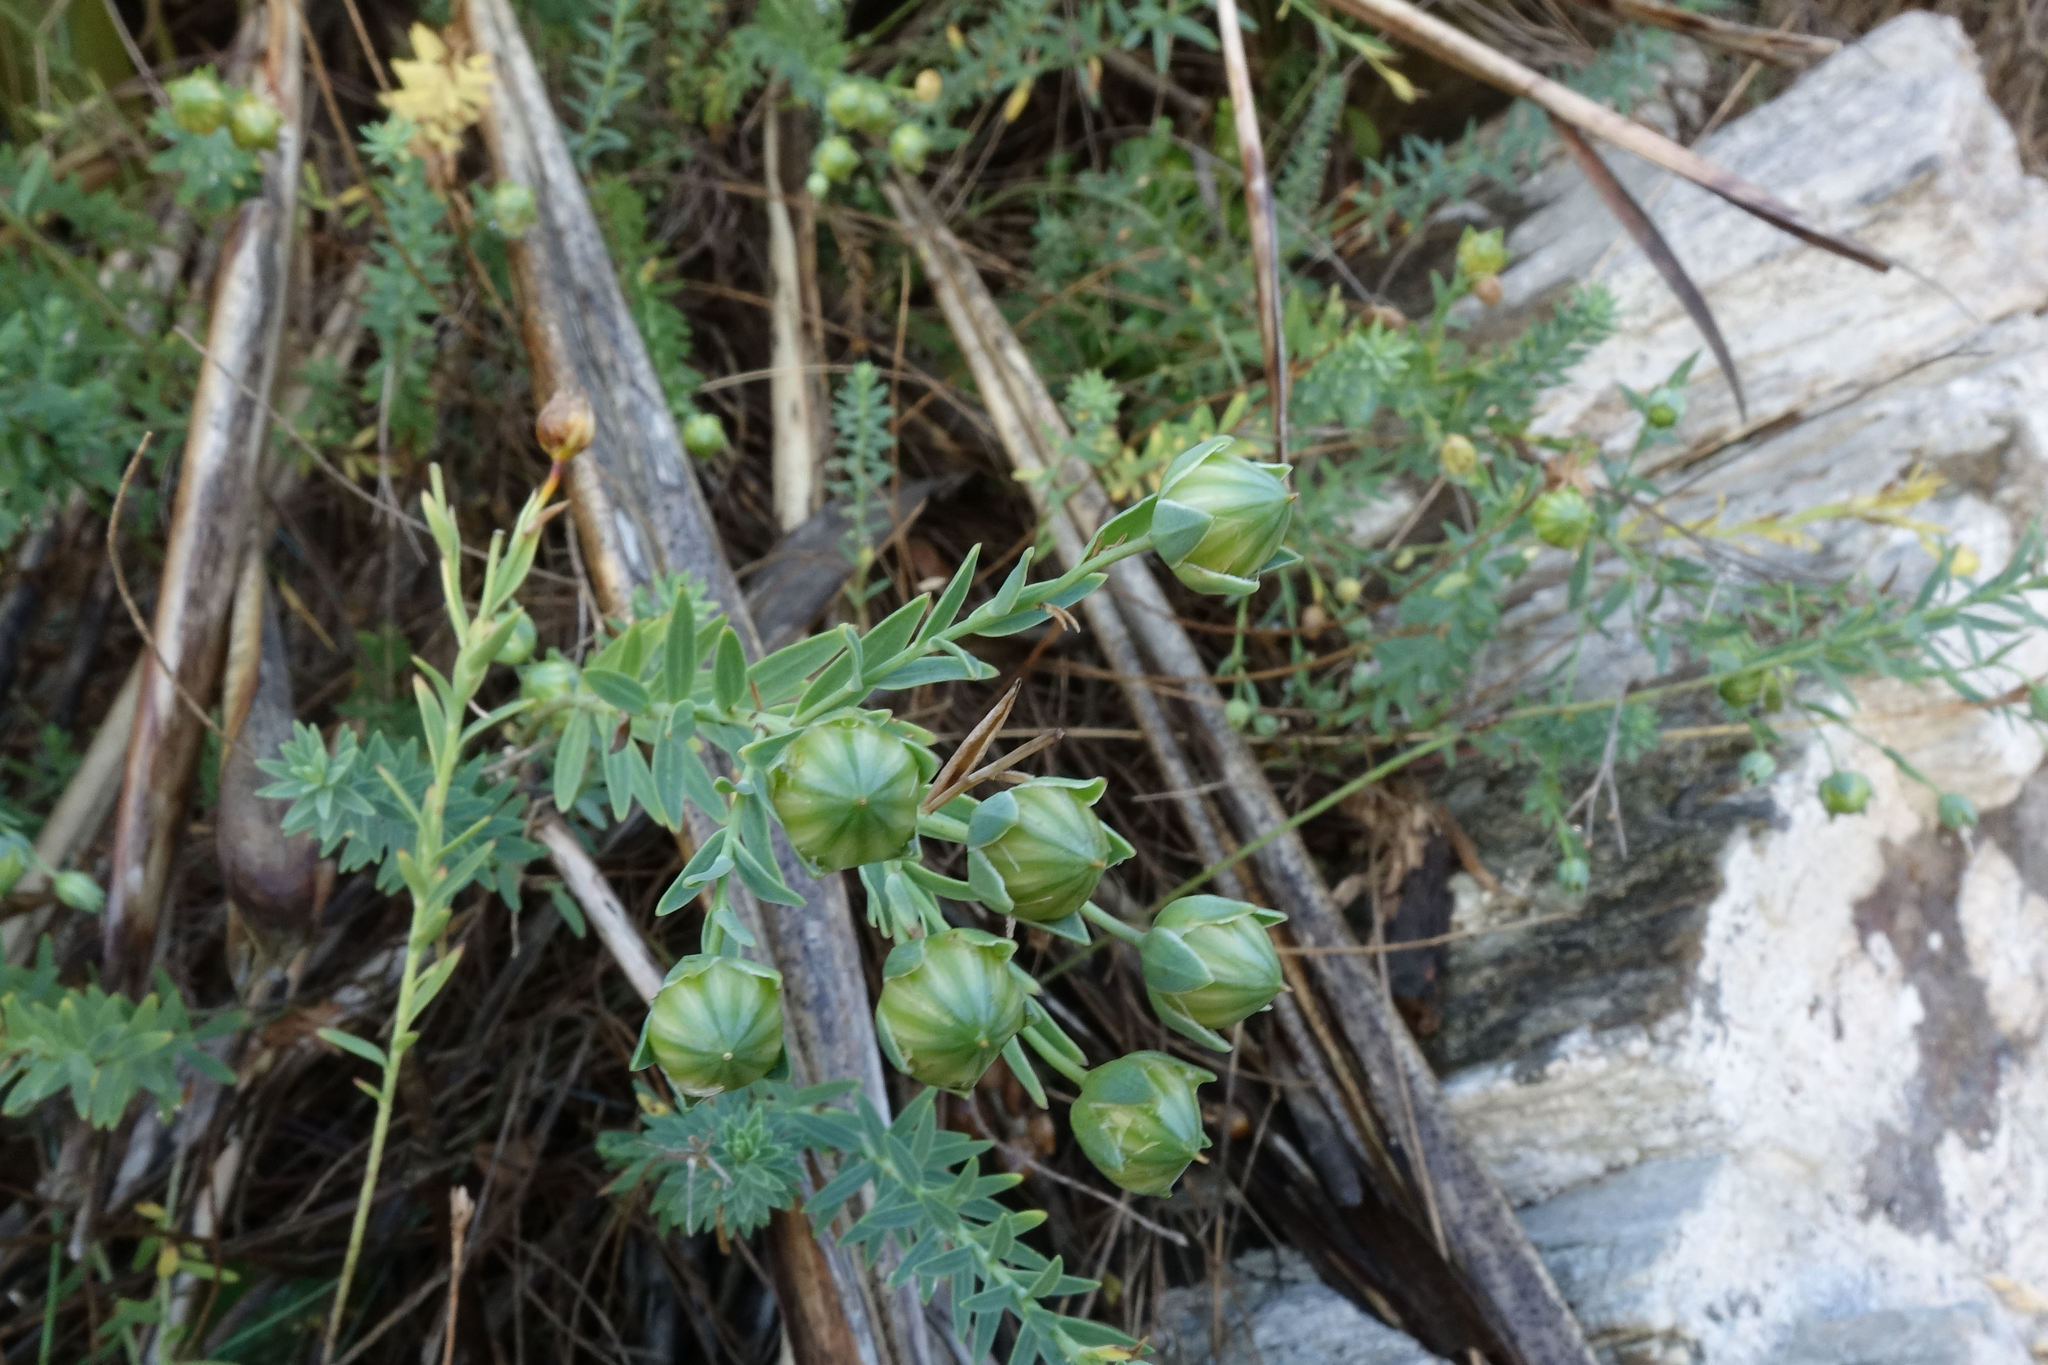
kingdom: Plantae
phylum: Tracheophyta
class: Magnoliopsida
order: Malpighiales
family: Linaceae
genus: Linum
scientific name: Linum monogynum
